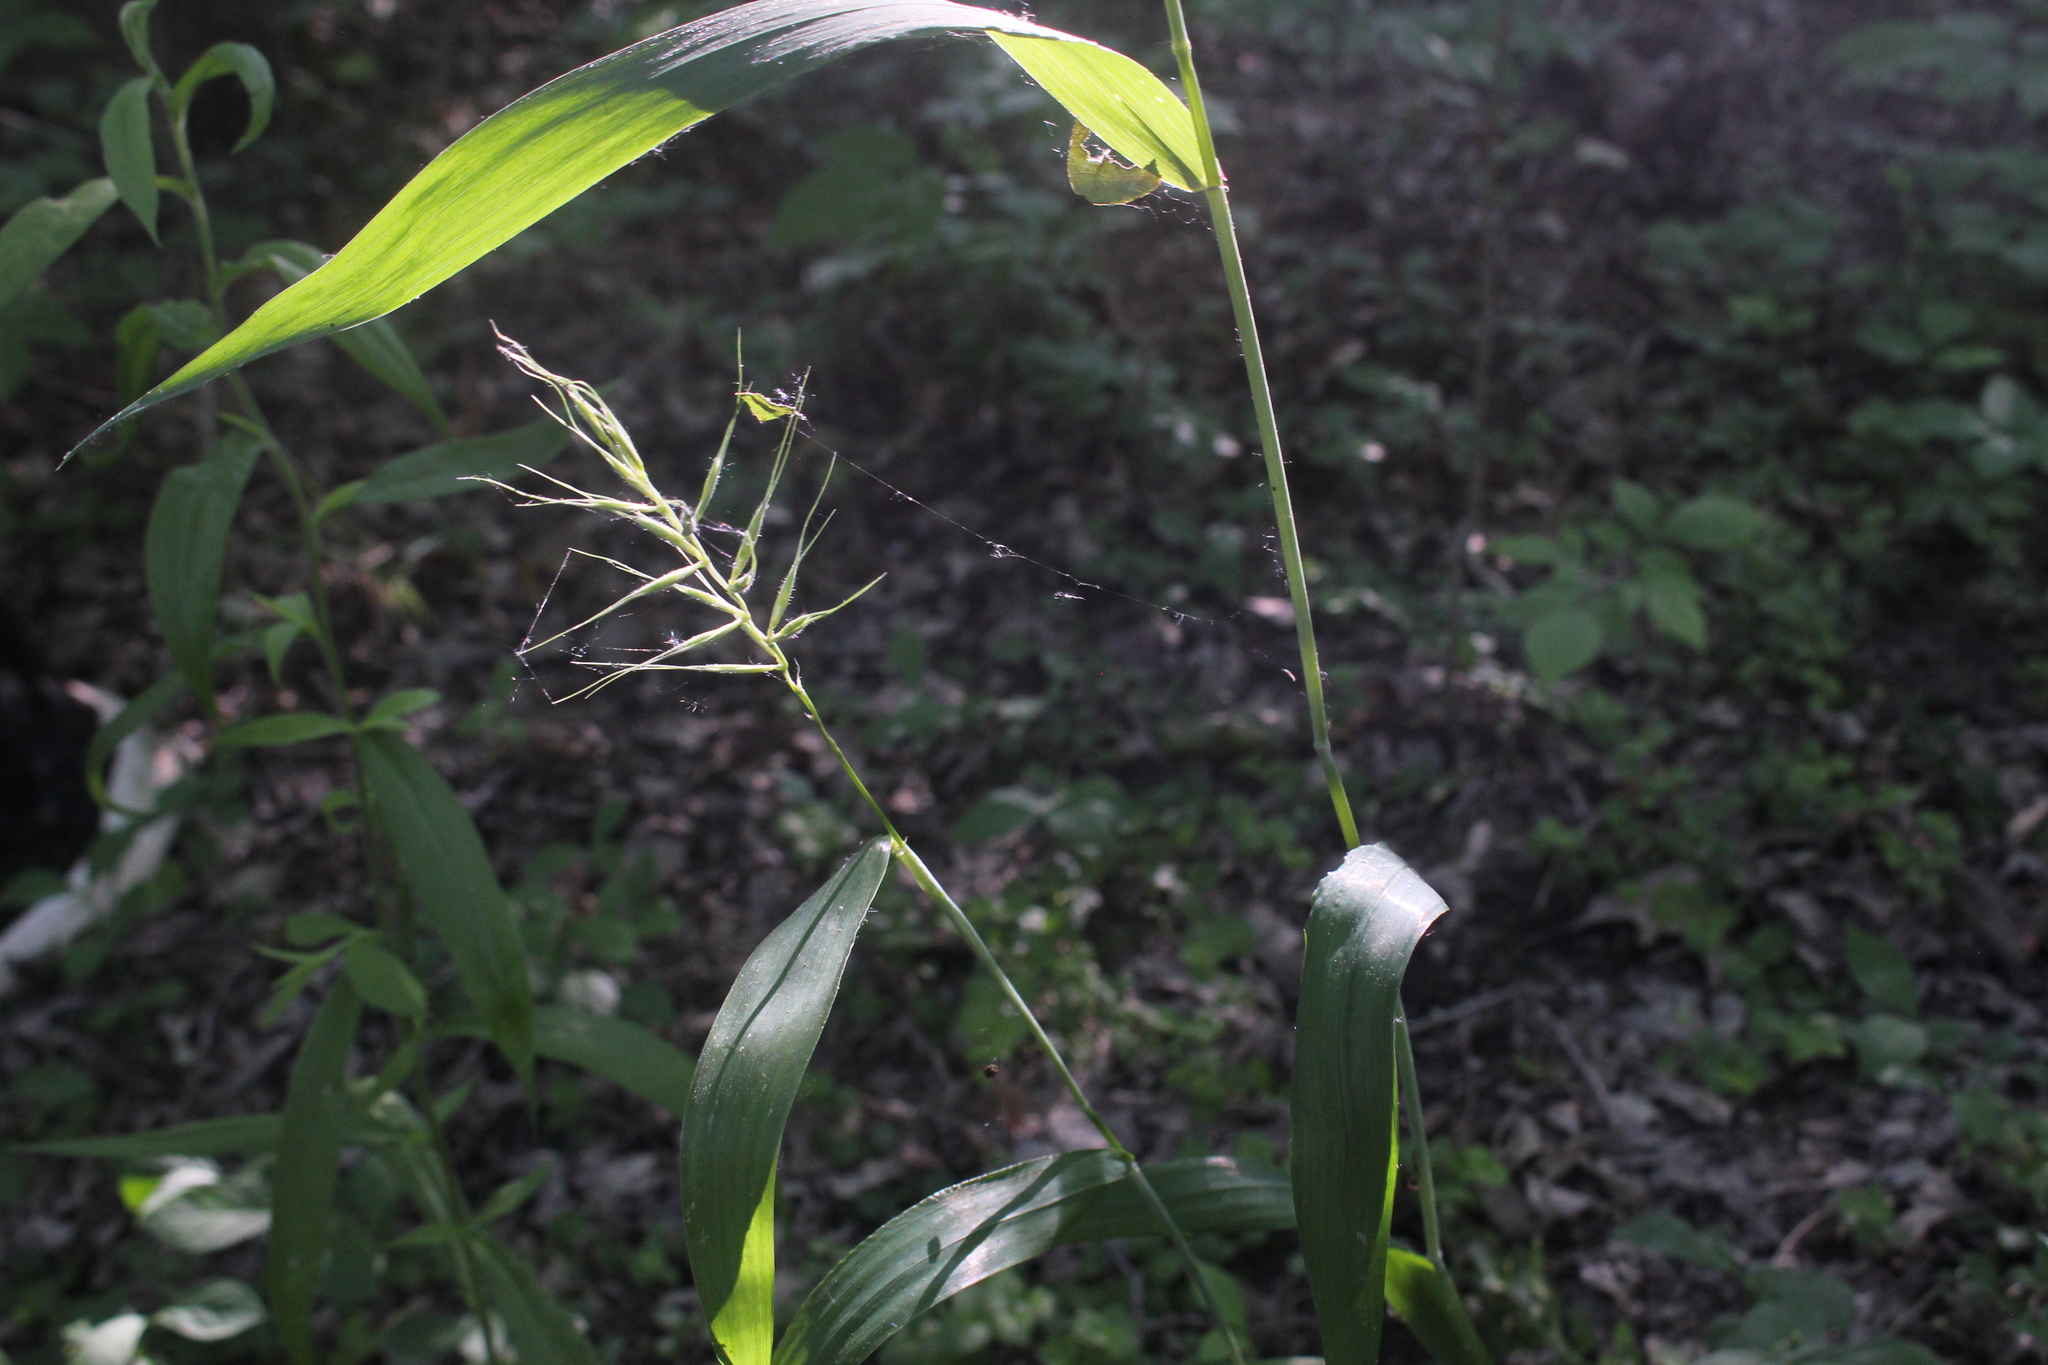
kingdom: Plantae
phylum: Tracheophyta
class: Liliopsida
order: Poales
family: Poaceae
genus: Elymus
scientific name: Elymus hystrix
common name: Bottlebrush grass
